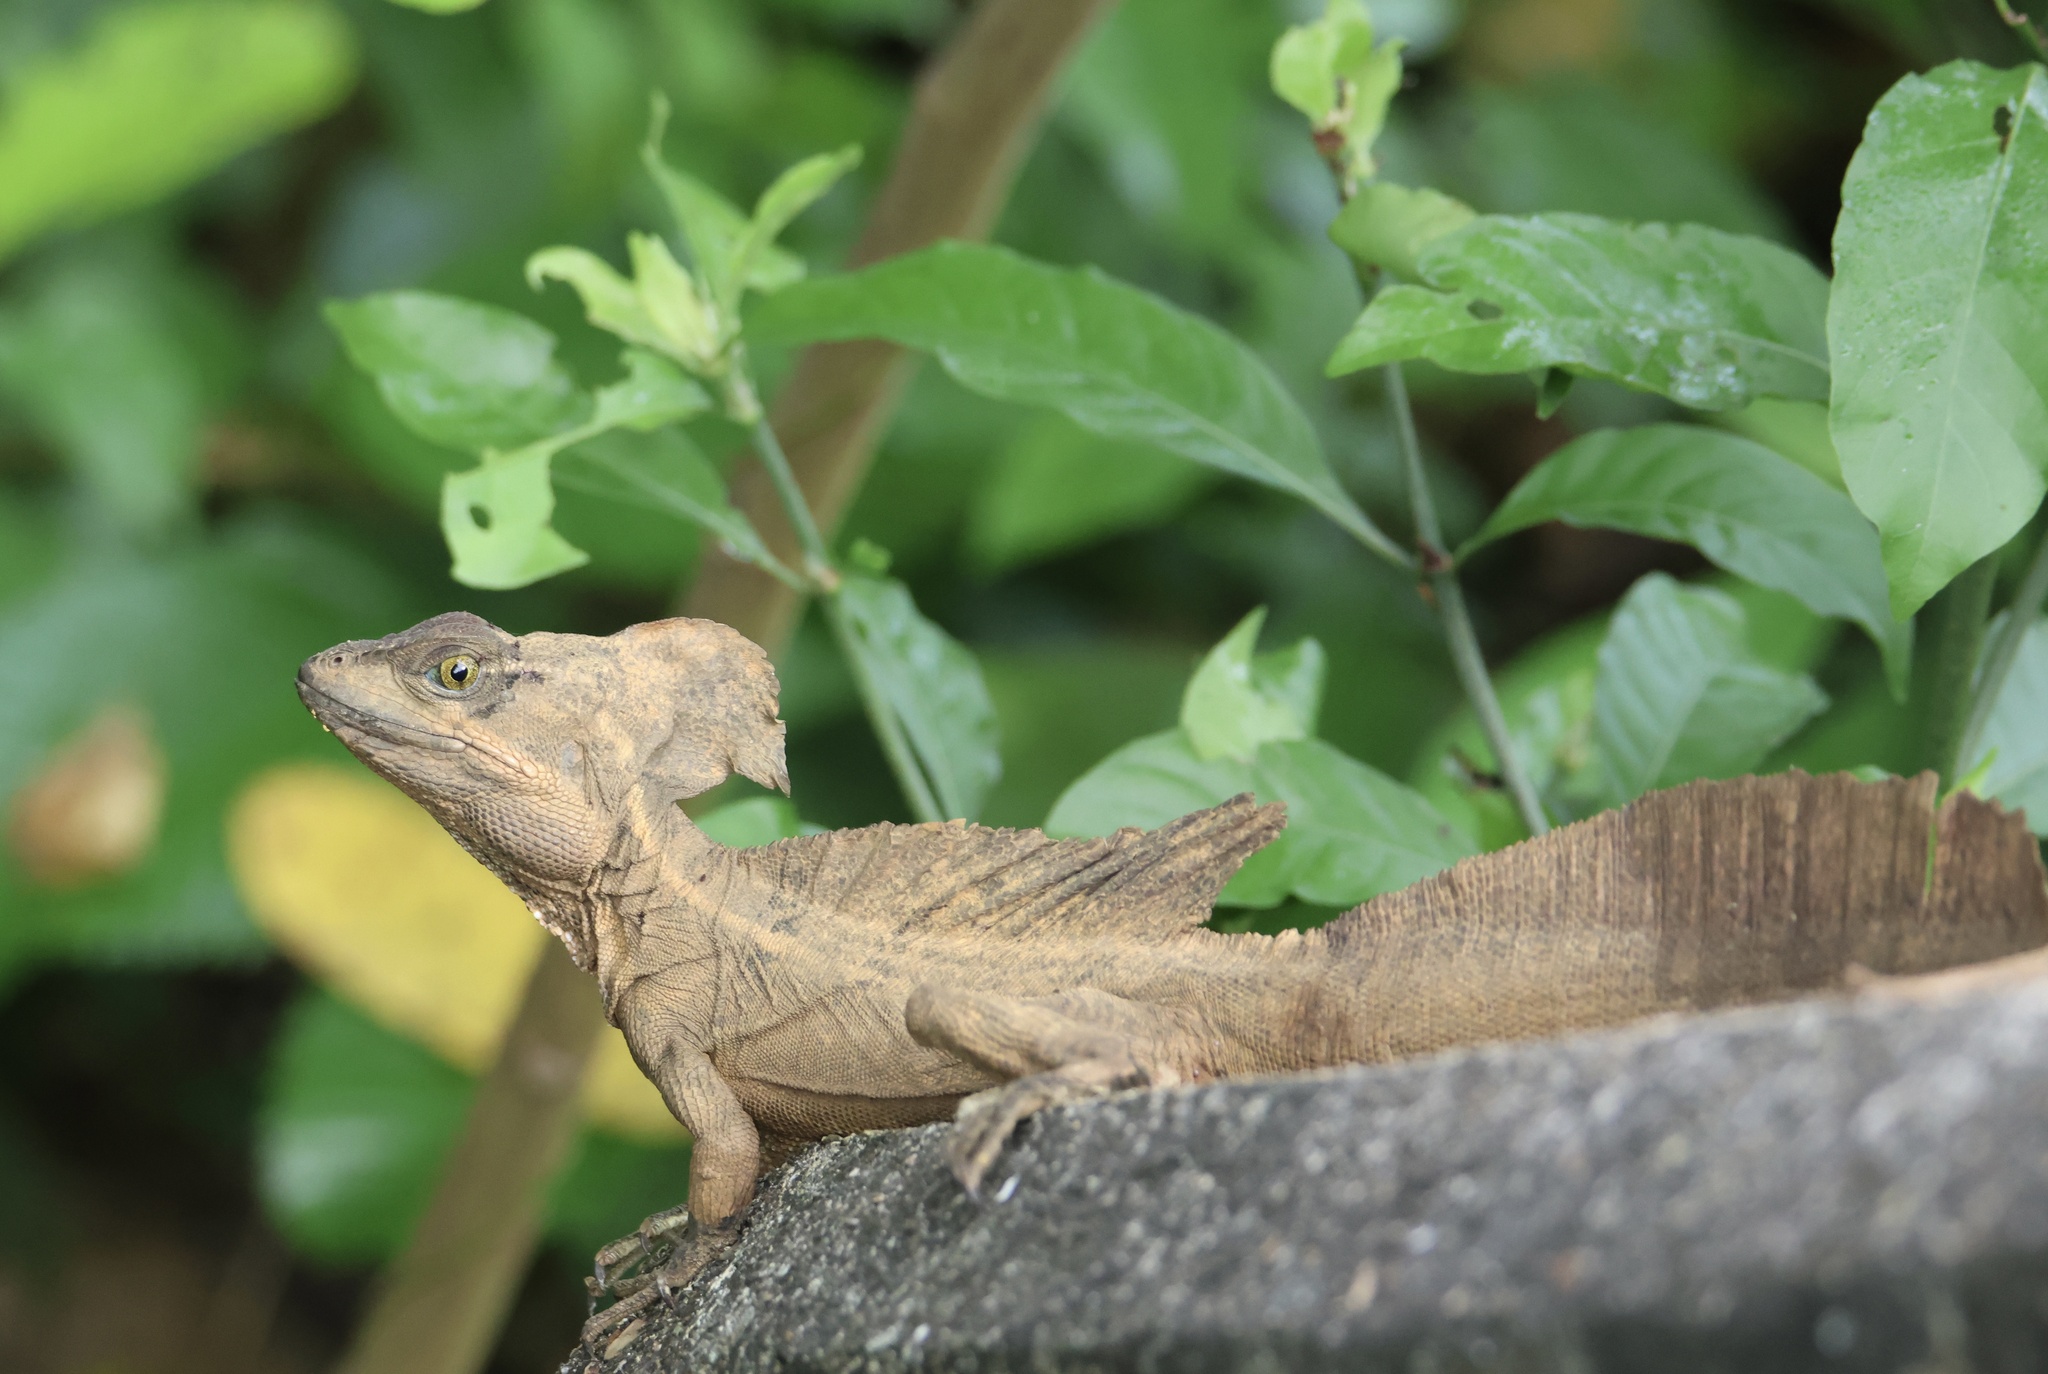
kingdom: Animalia
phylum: Chordata
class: Squamata
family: Corytophanidae
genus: Basiliscus
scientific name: Basiliscus basiliscus
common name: Common basilisk
